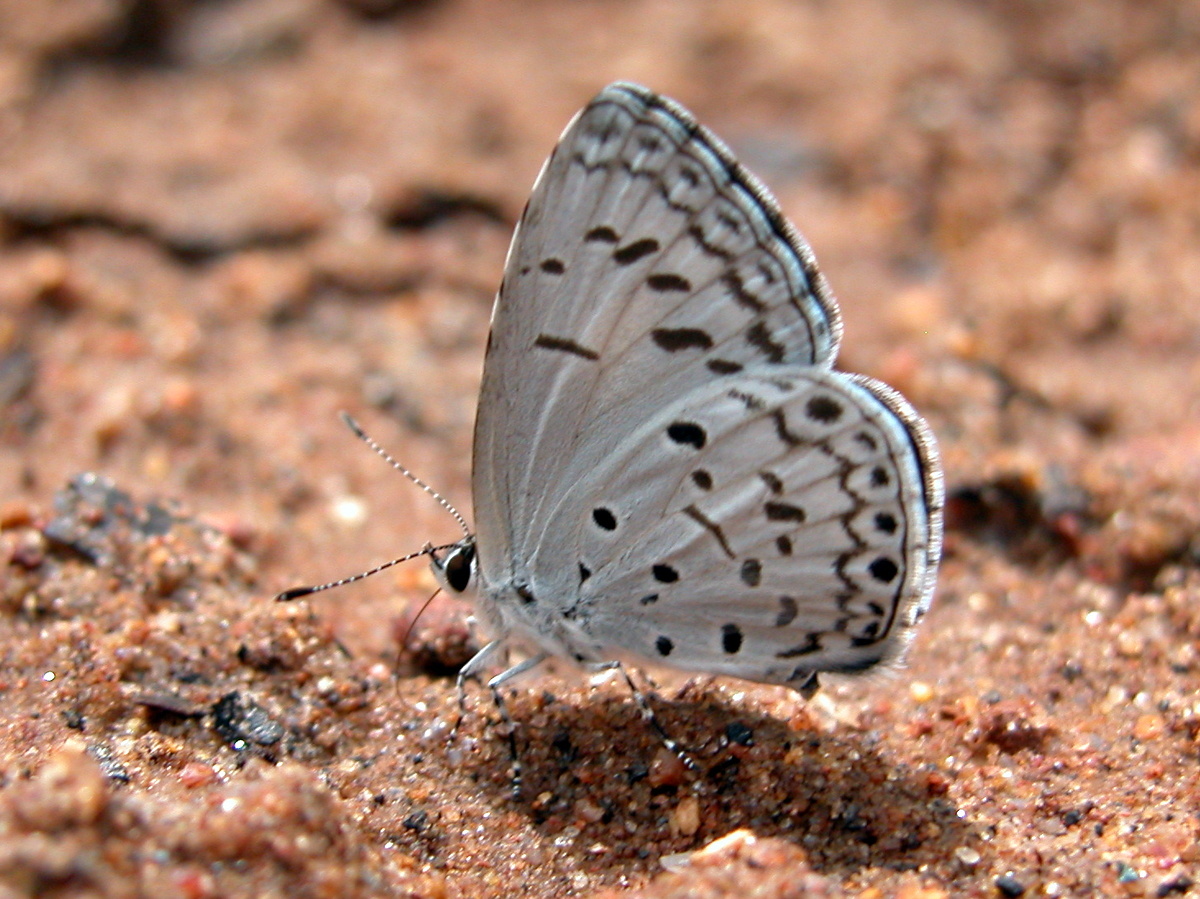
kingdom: Animalia
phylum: Arthropoda
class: Insecta
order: Lepidoptera
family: Lycaenidae
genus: Acytolepis
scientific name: Acytolepis puspa
